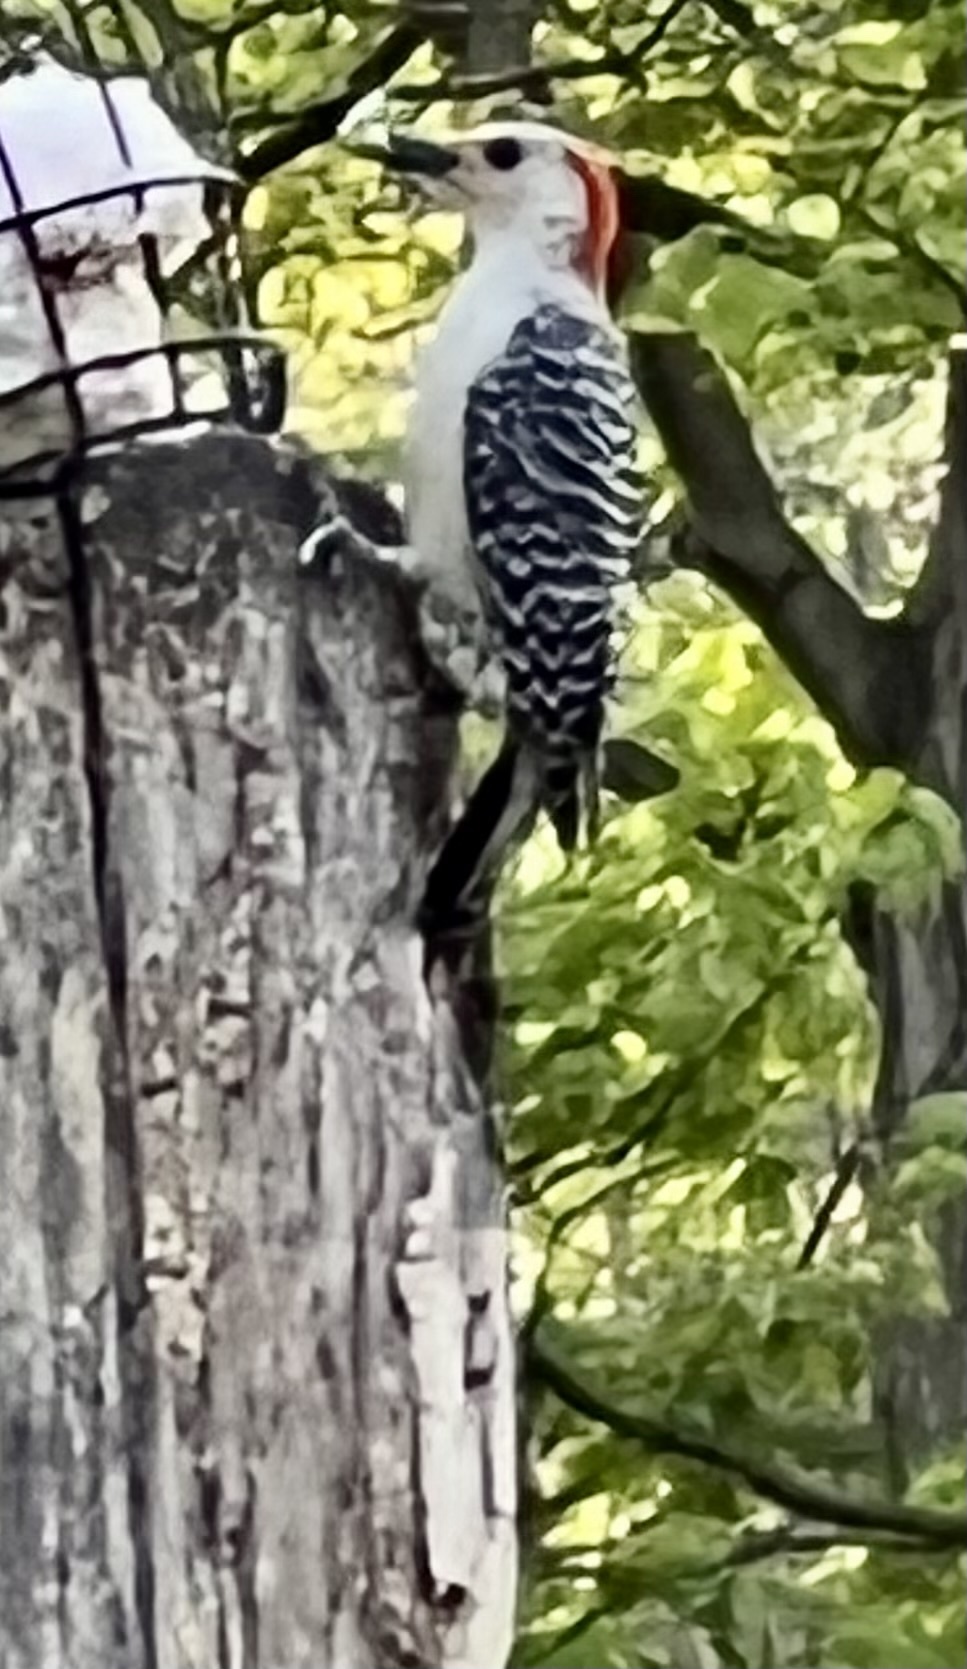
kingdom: Animalia
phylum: Chordata
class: Aves
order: Piciformes
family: Picidae
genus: Melanerpes
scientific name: Melanerpes carolinus
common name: Red-bellied woodpecker
